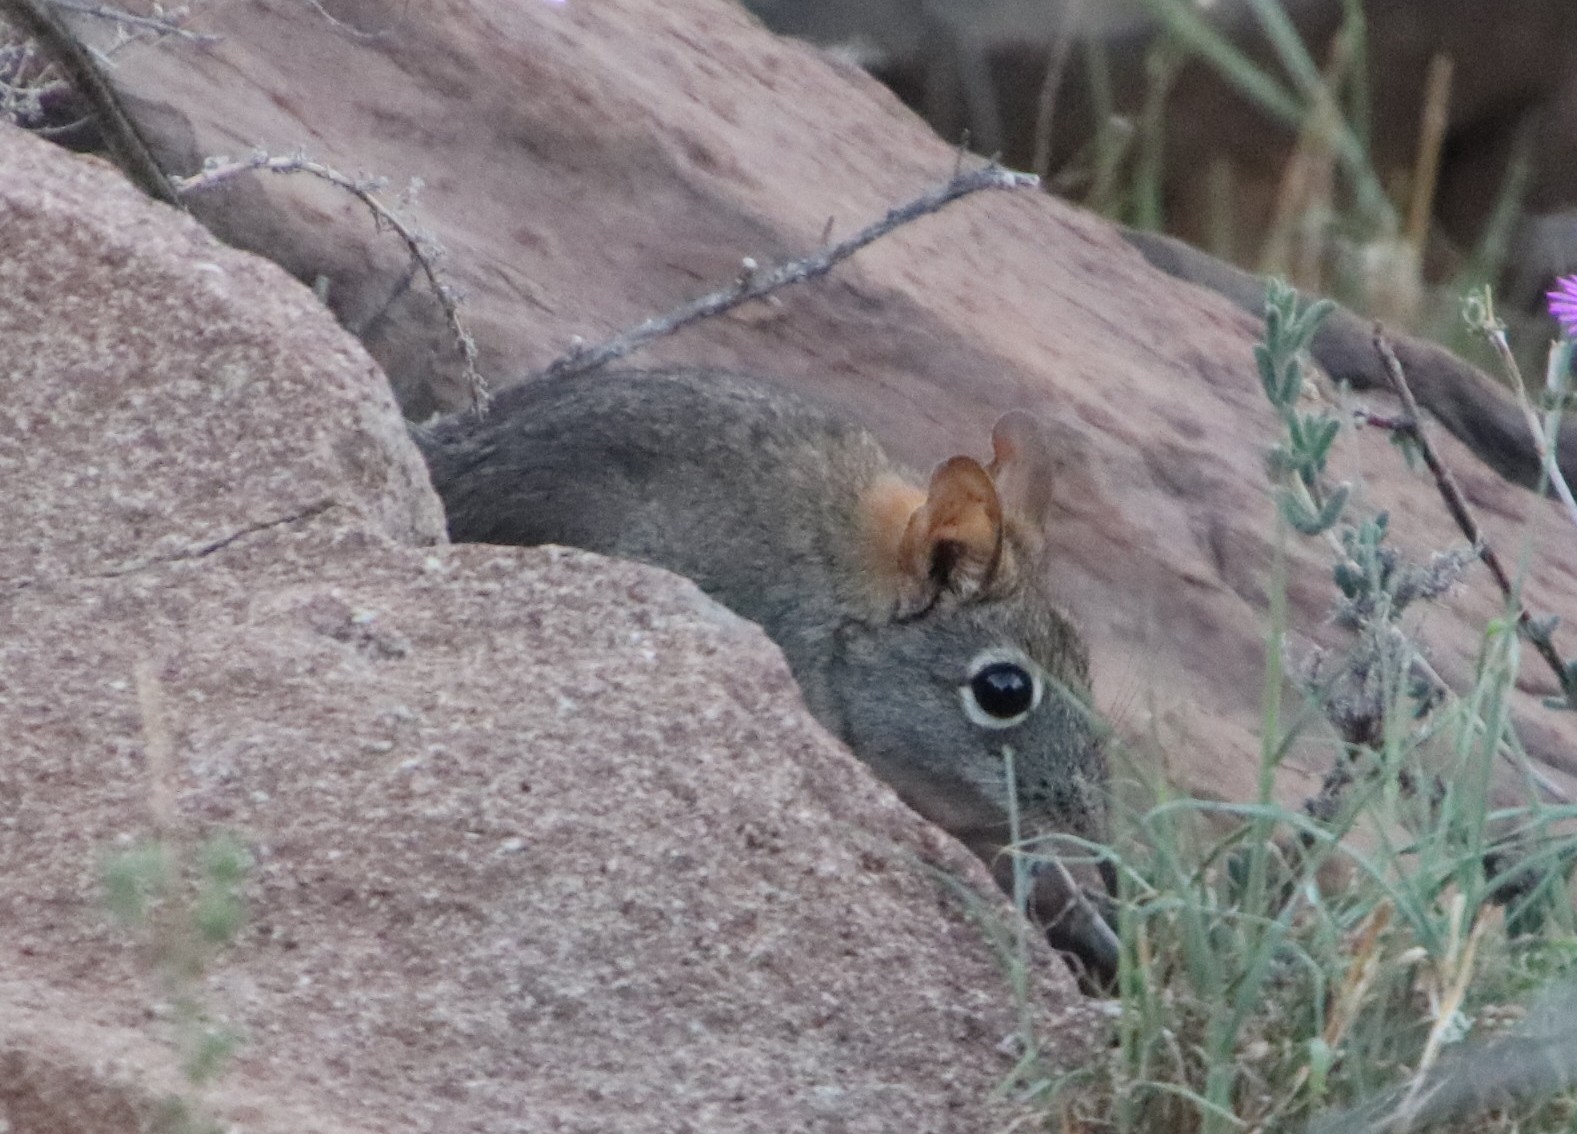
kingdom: Animalia
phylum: Chordata
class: Mammalia
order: Macroscelidea
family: Macroscelididae
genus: Elephantulus
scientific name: Elephantulus rupestris
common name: Western rock elephant shrew
